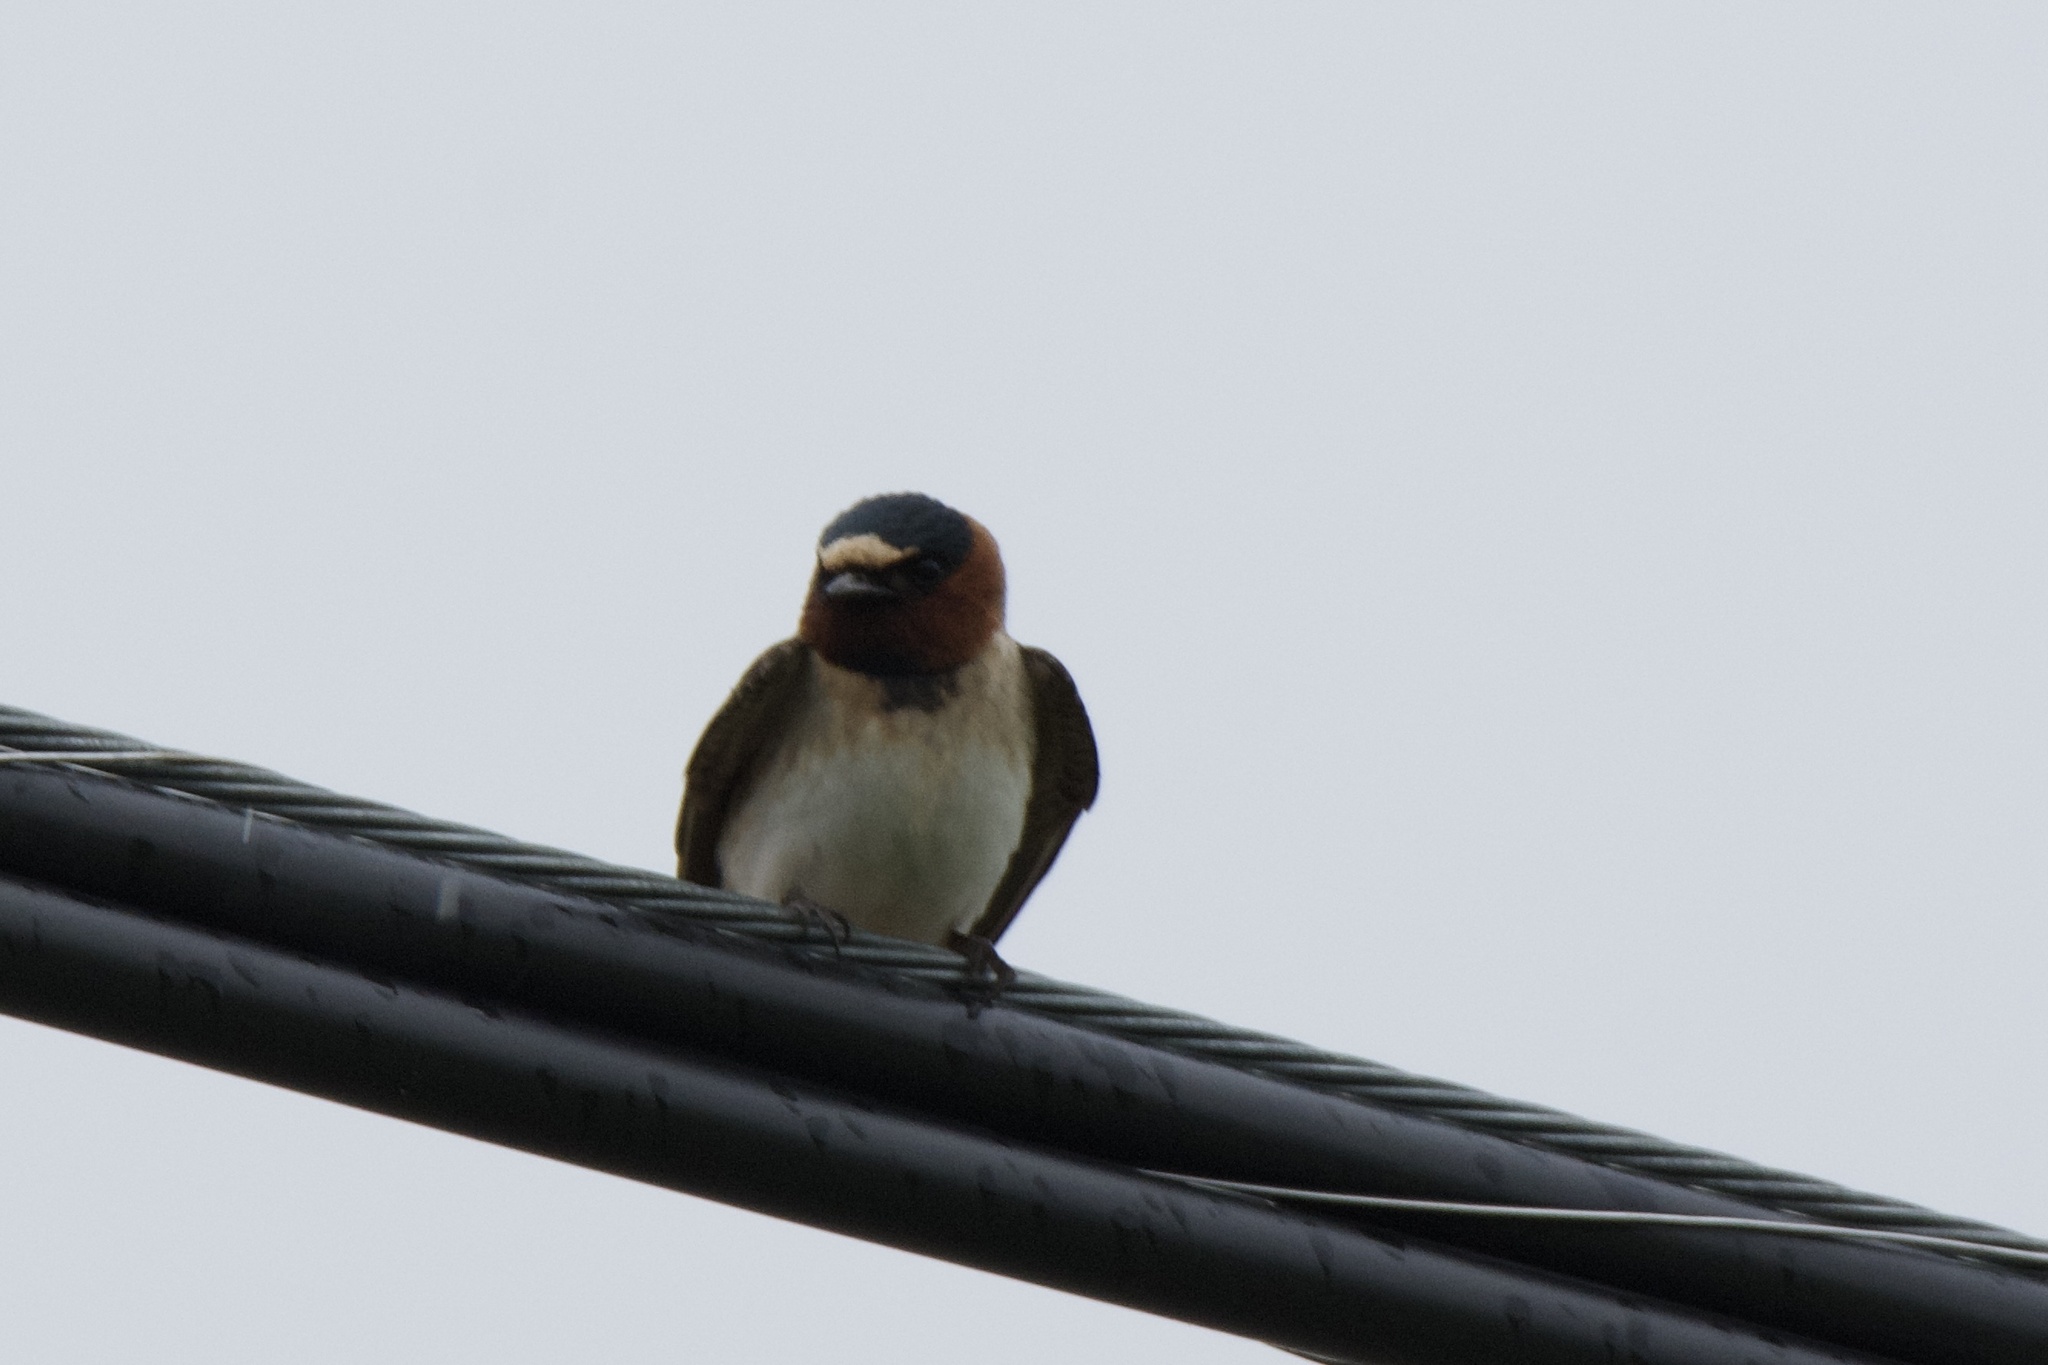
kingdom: Animalia
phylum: Chordata
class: Aves
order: Passeriformes
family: Hirundinidae
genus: Petrochelidon
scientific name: Petrochelidon pyrrhonota
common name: American cliff swallow
